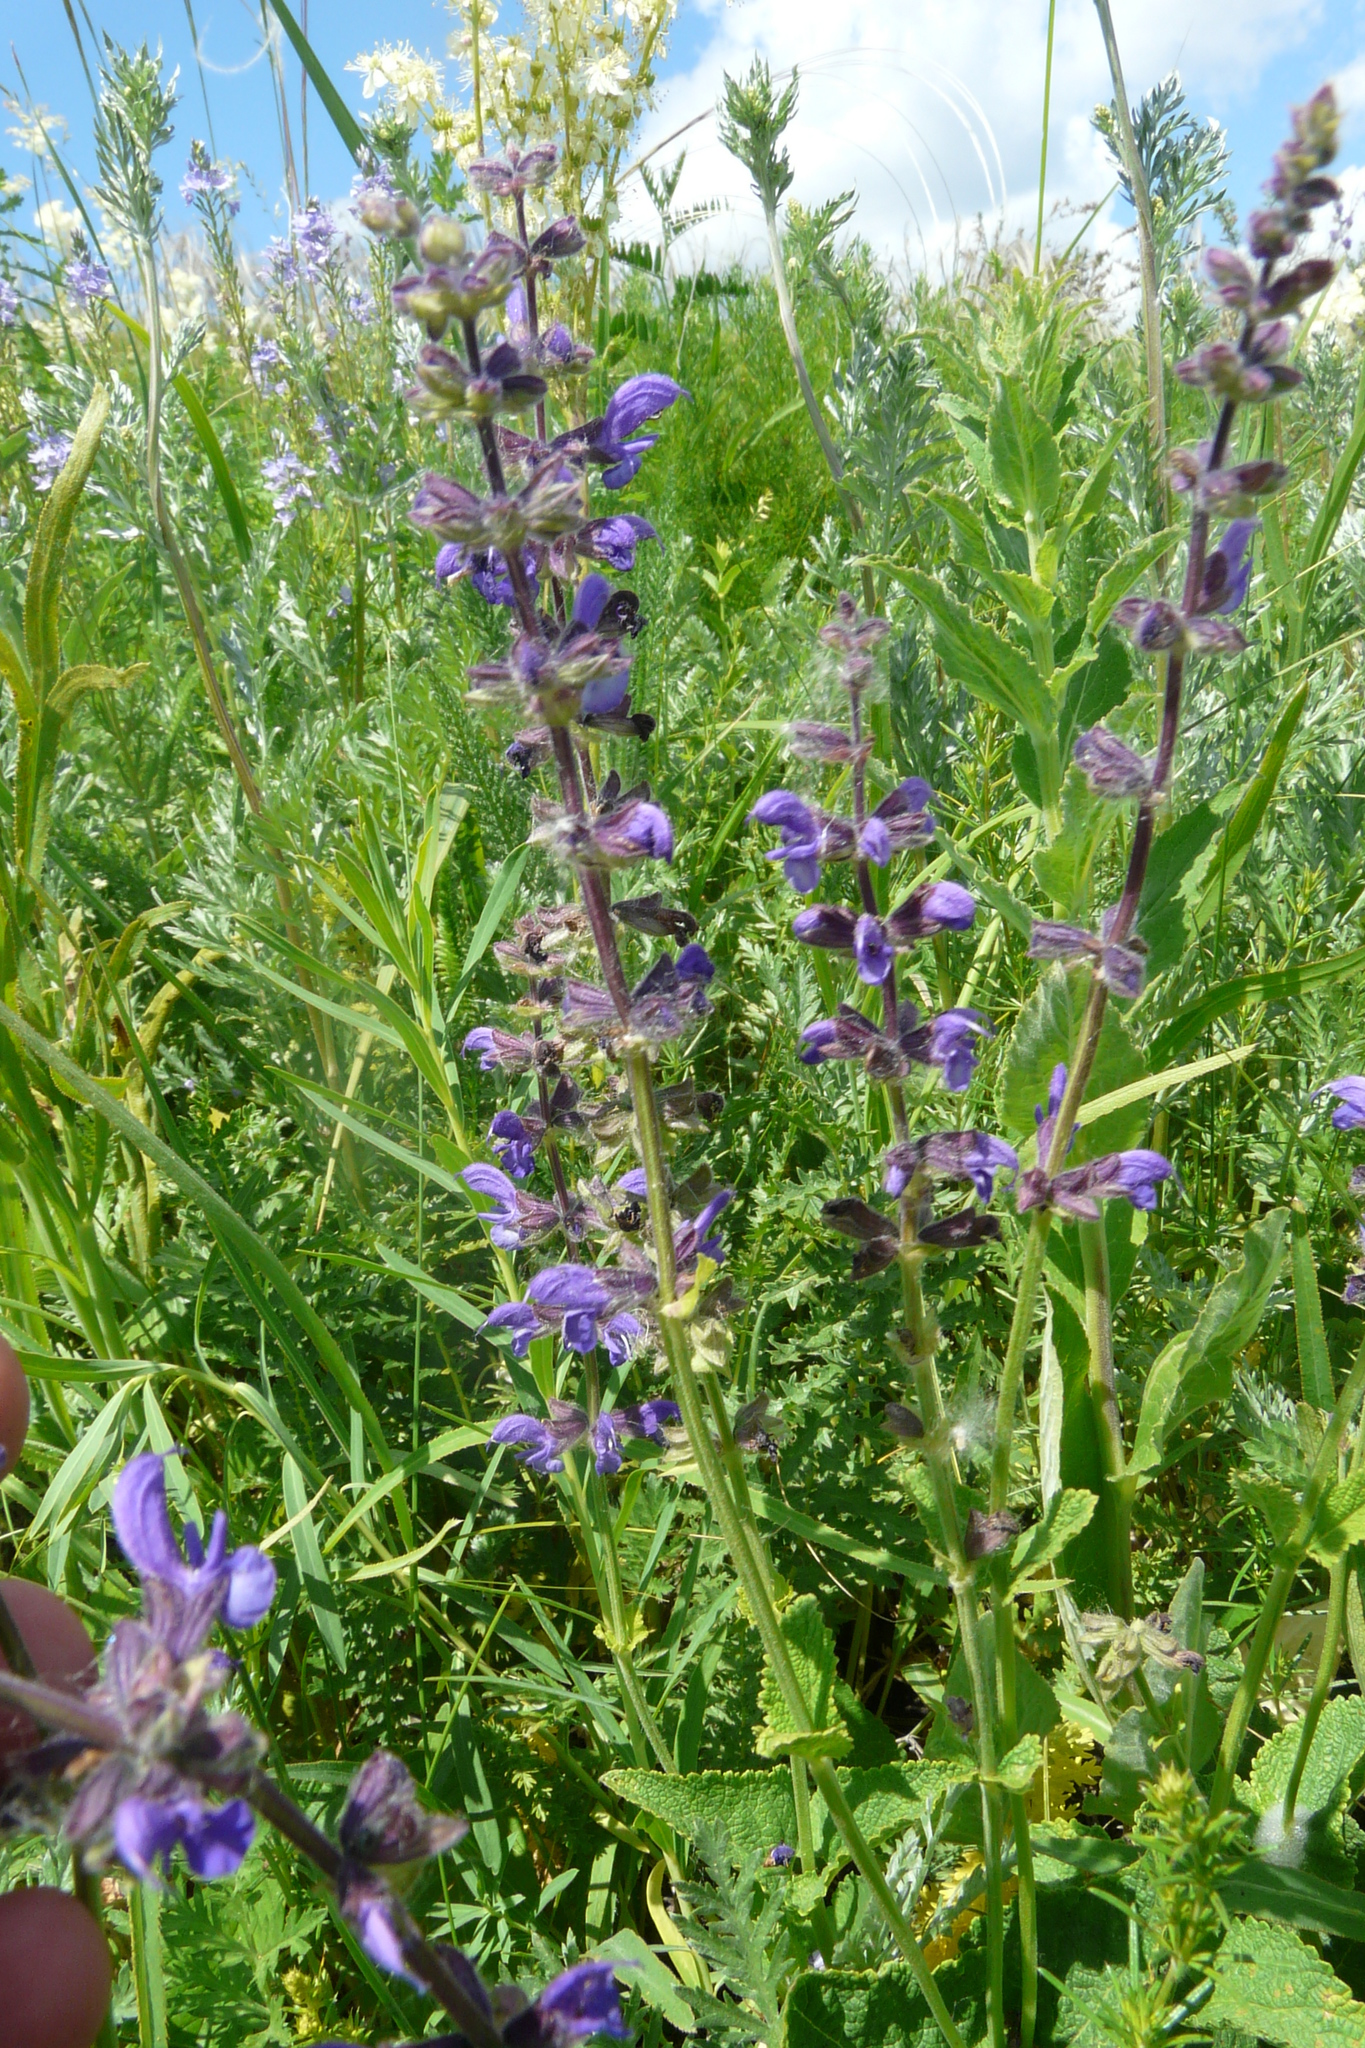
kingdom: Plantae
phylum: Tracheophyta
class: Magnoliopsida
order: Lamiales
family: Lamiaceae
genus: Salvia
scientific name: Salvia dumetorum
